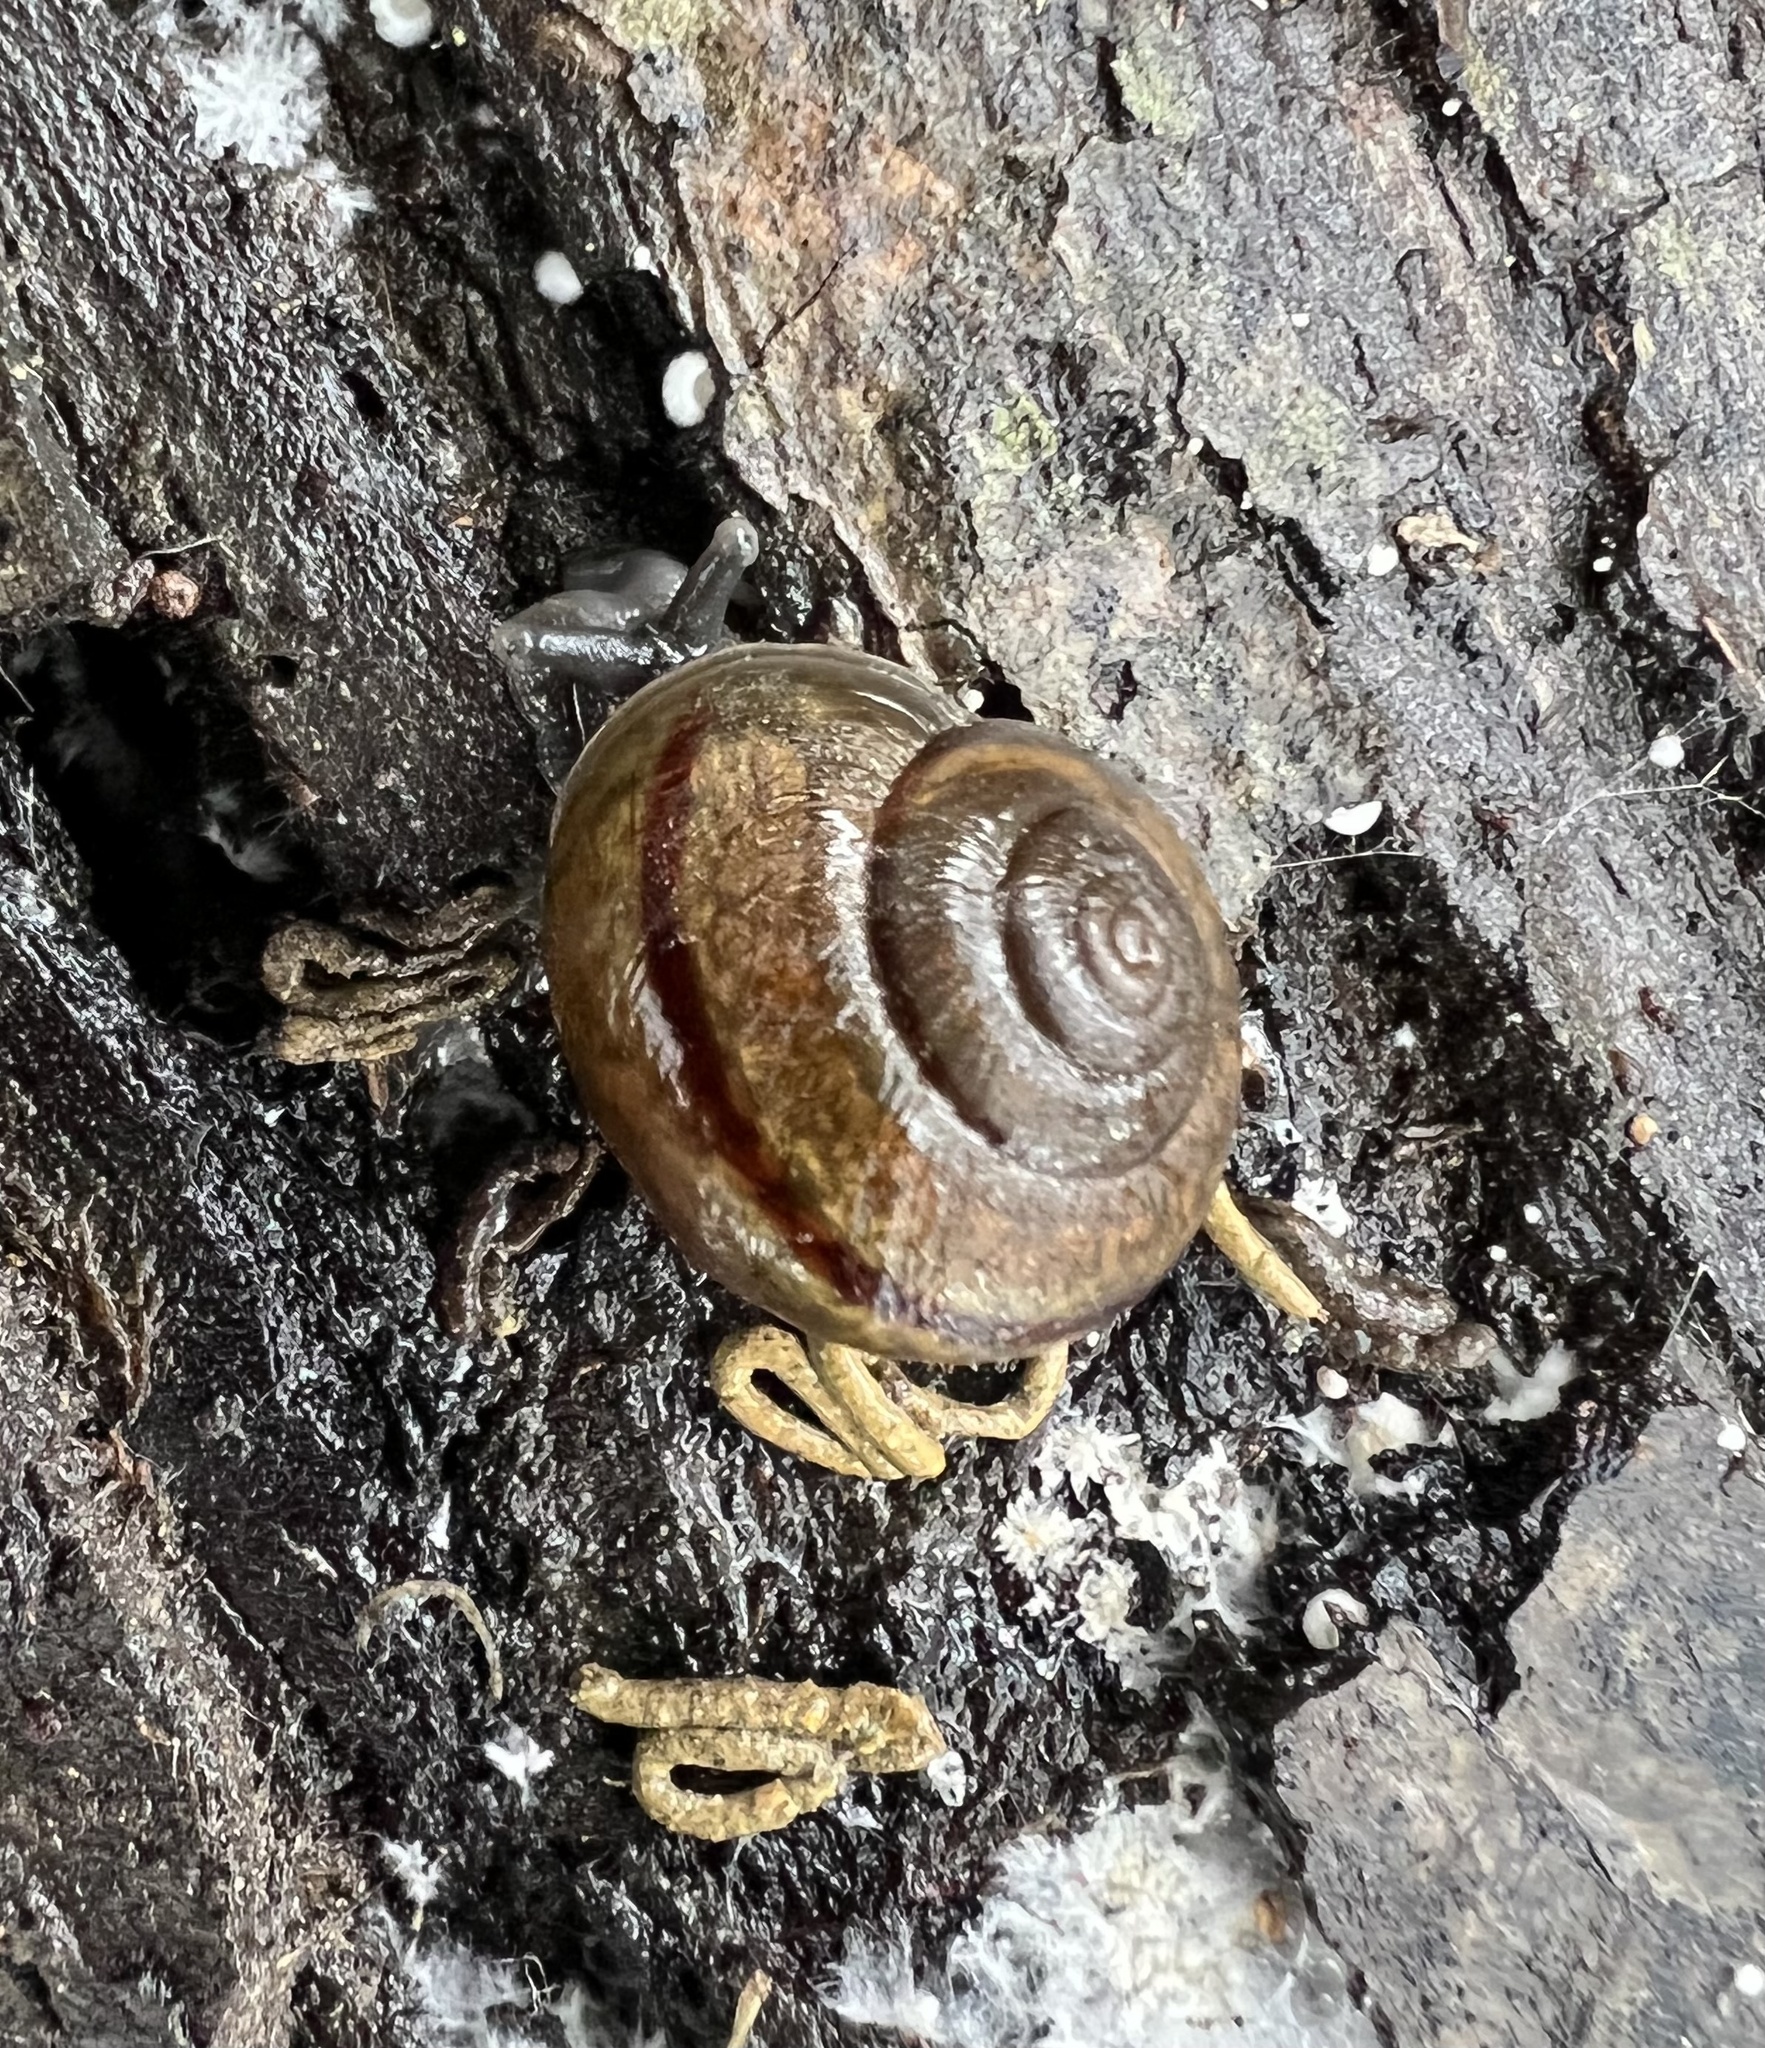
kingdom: Animalia
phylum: Mollusca
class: Gastropoda
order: Stylommatophora
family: Xanthonychidae
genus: Helminthoglypta
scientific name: Helminthoglypta tudiculata
